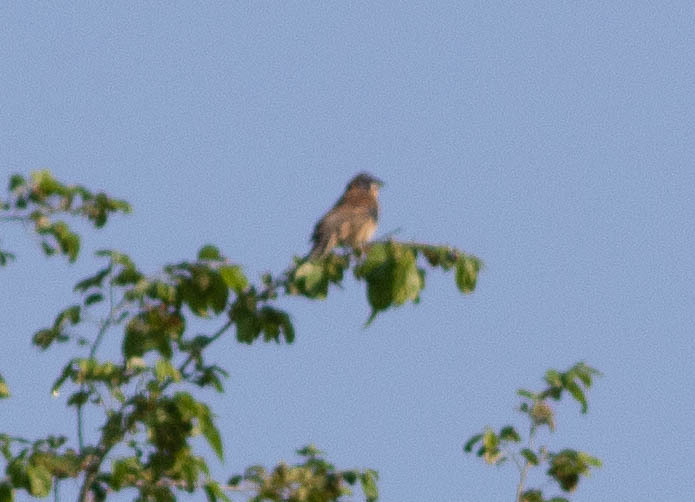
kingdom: Animalia
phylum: Chordata
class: Aves
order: Passeriformes
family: Cardinalidae
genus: Passerina
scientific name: Passerina caerulea
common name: Blue grosbeak
